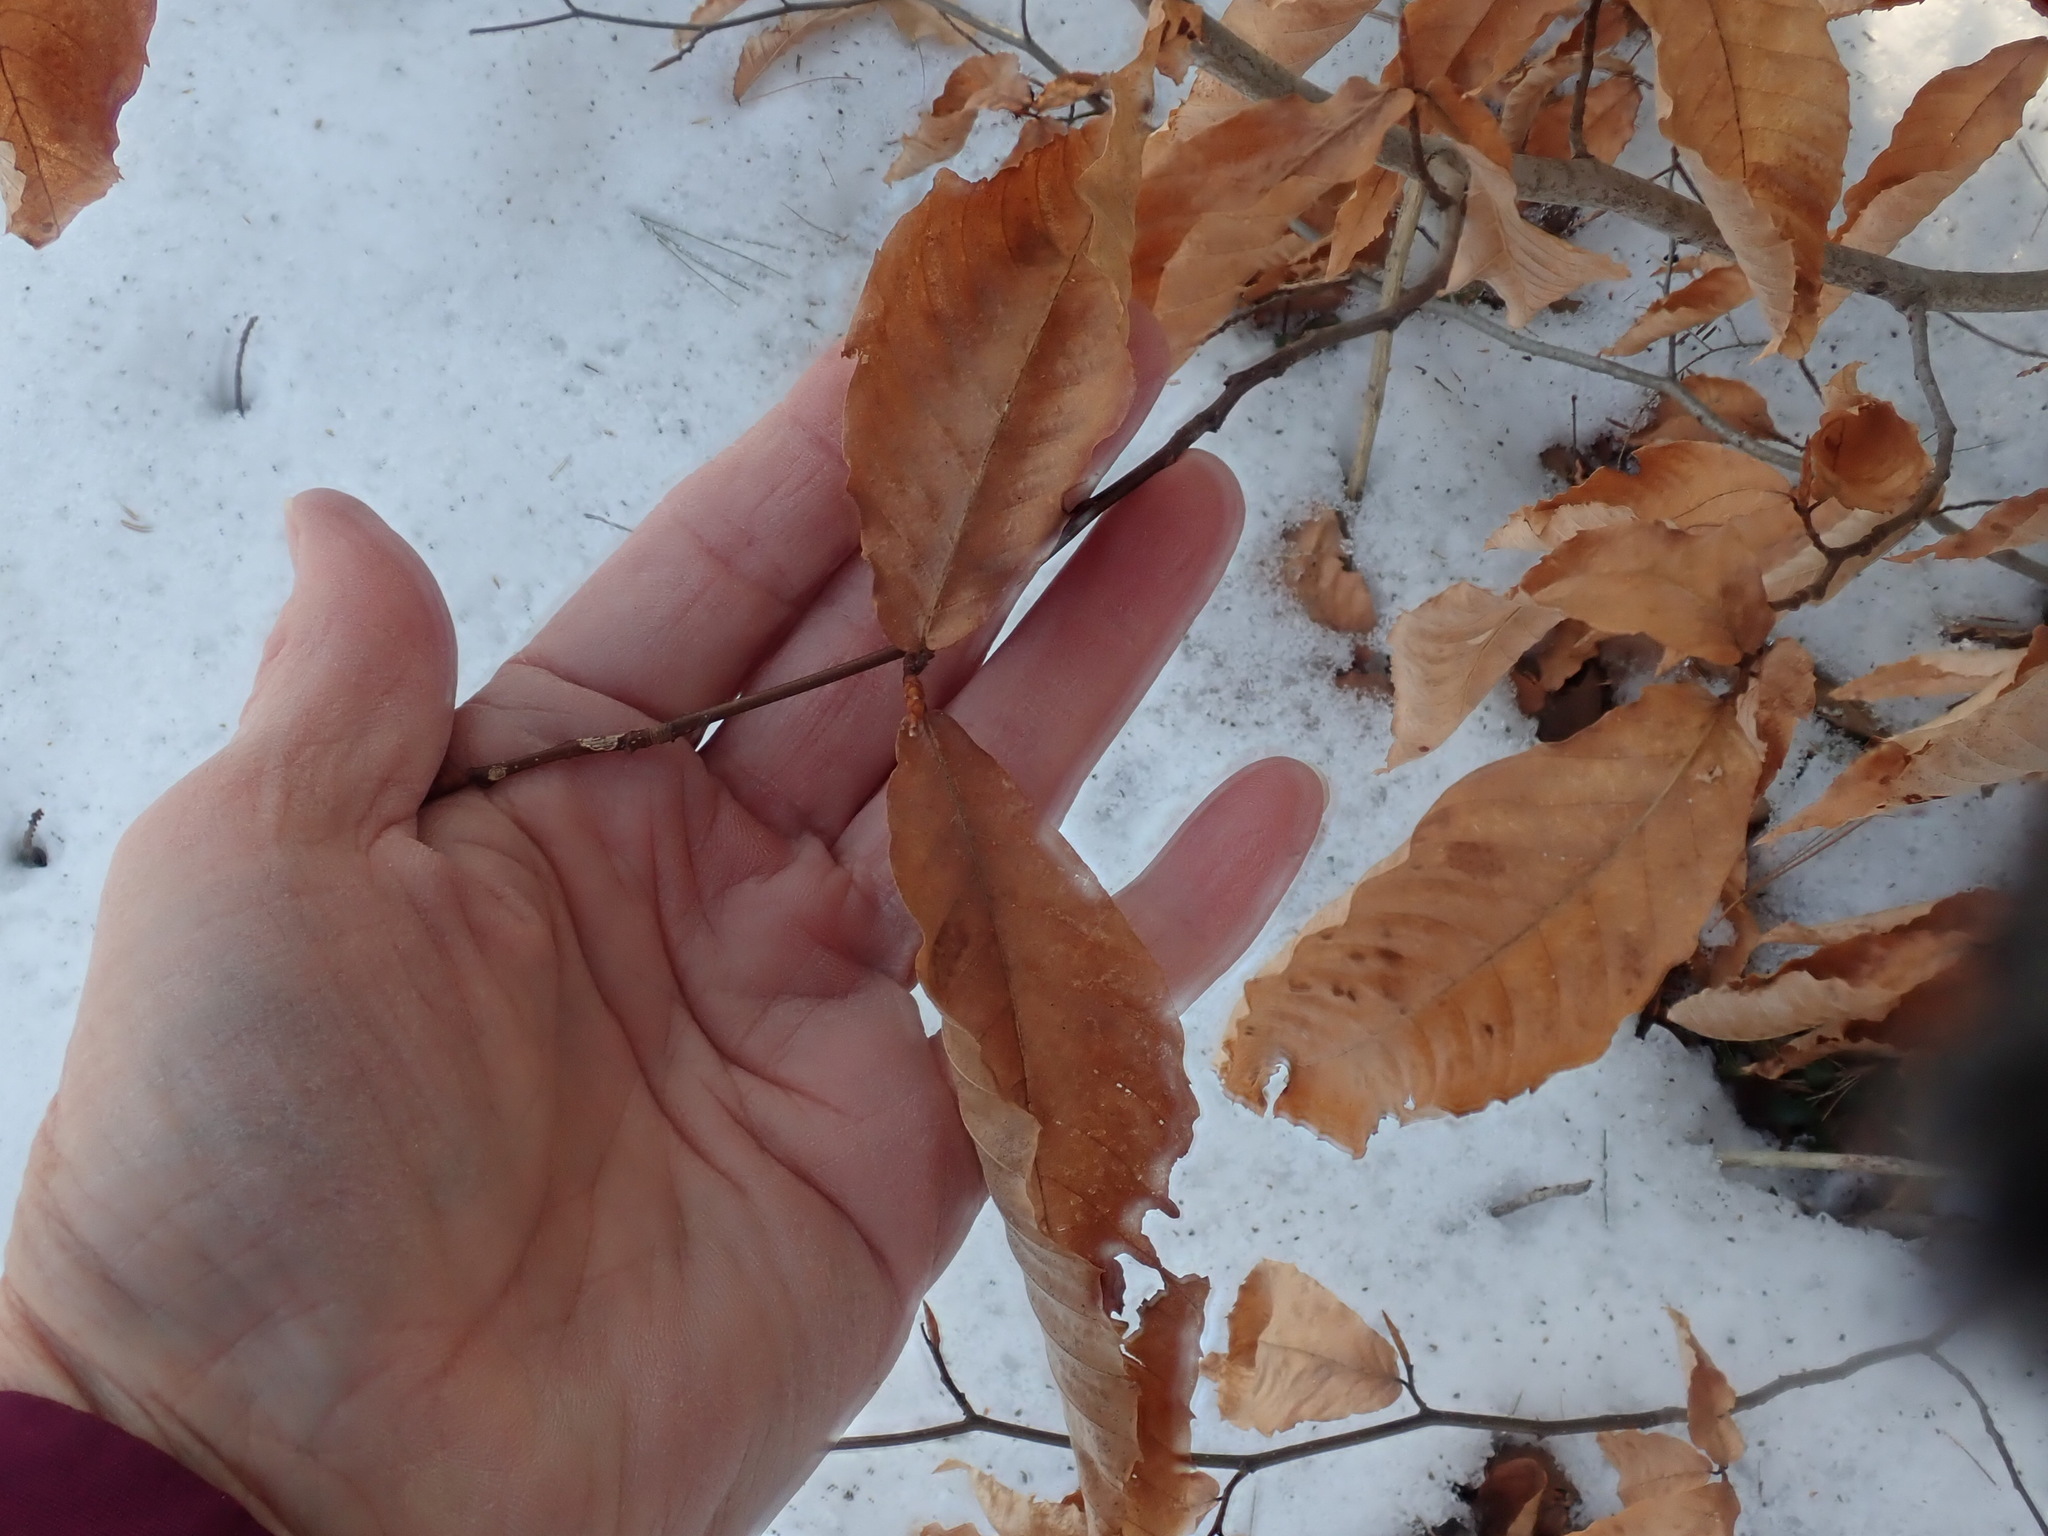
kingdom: Plantae
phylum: Tracheophyta
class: Magnoliopsida
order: Fagales
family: Fagaceae
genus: Fagus
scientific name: Fagus grandifolia
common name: American beech
